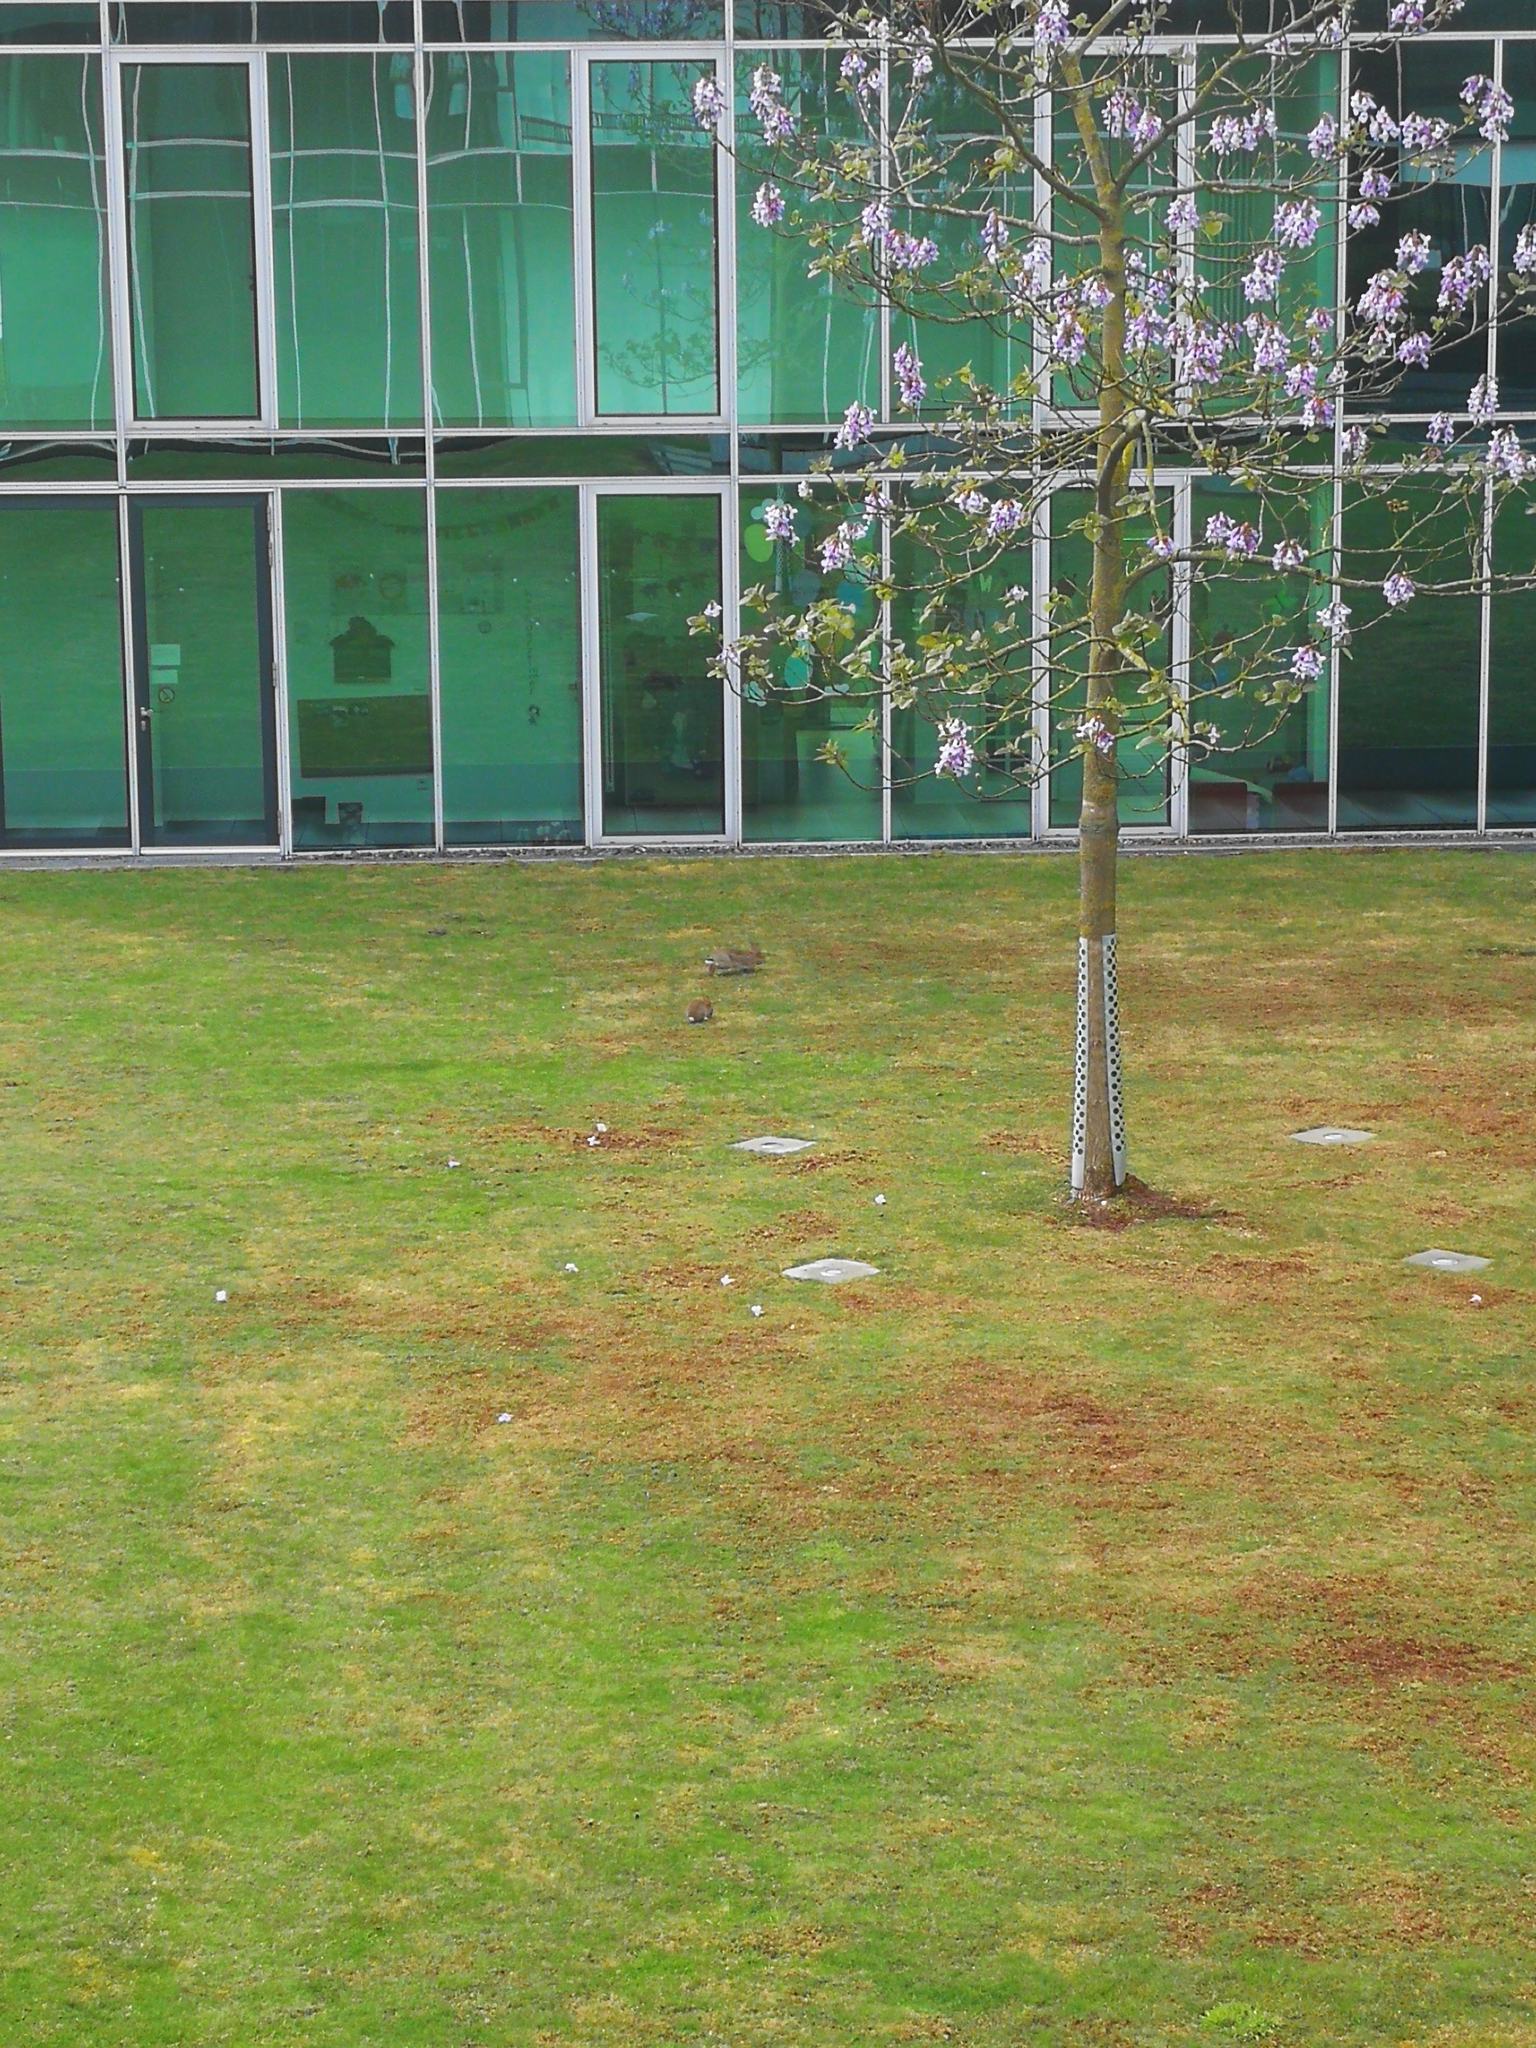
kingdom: Animalia
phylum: Chordata
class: Mammalia
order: Lagomorpha
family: Leporidae
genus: Oryctolagus
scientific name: Oryctolagus cuniculus
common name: European rabbit
